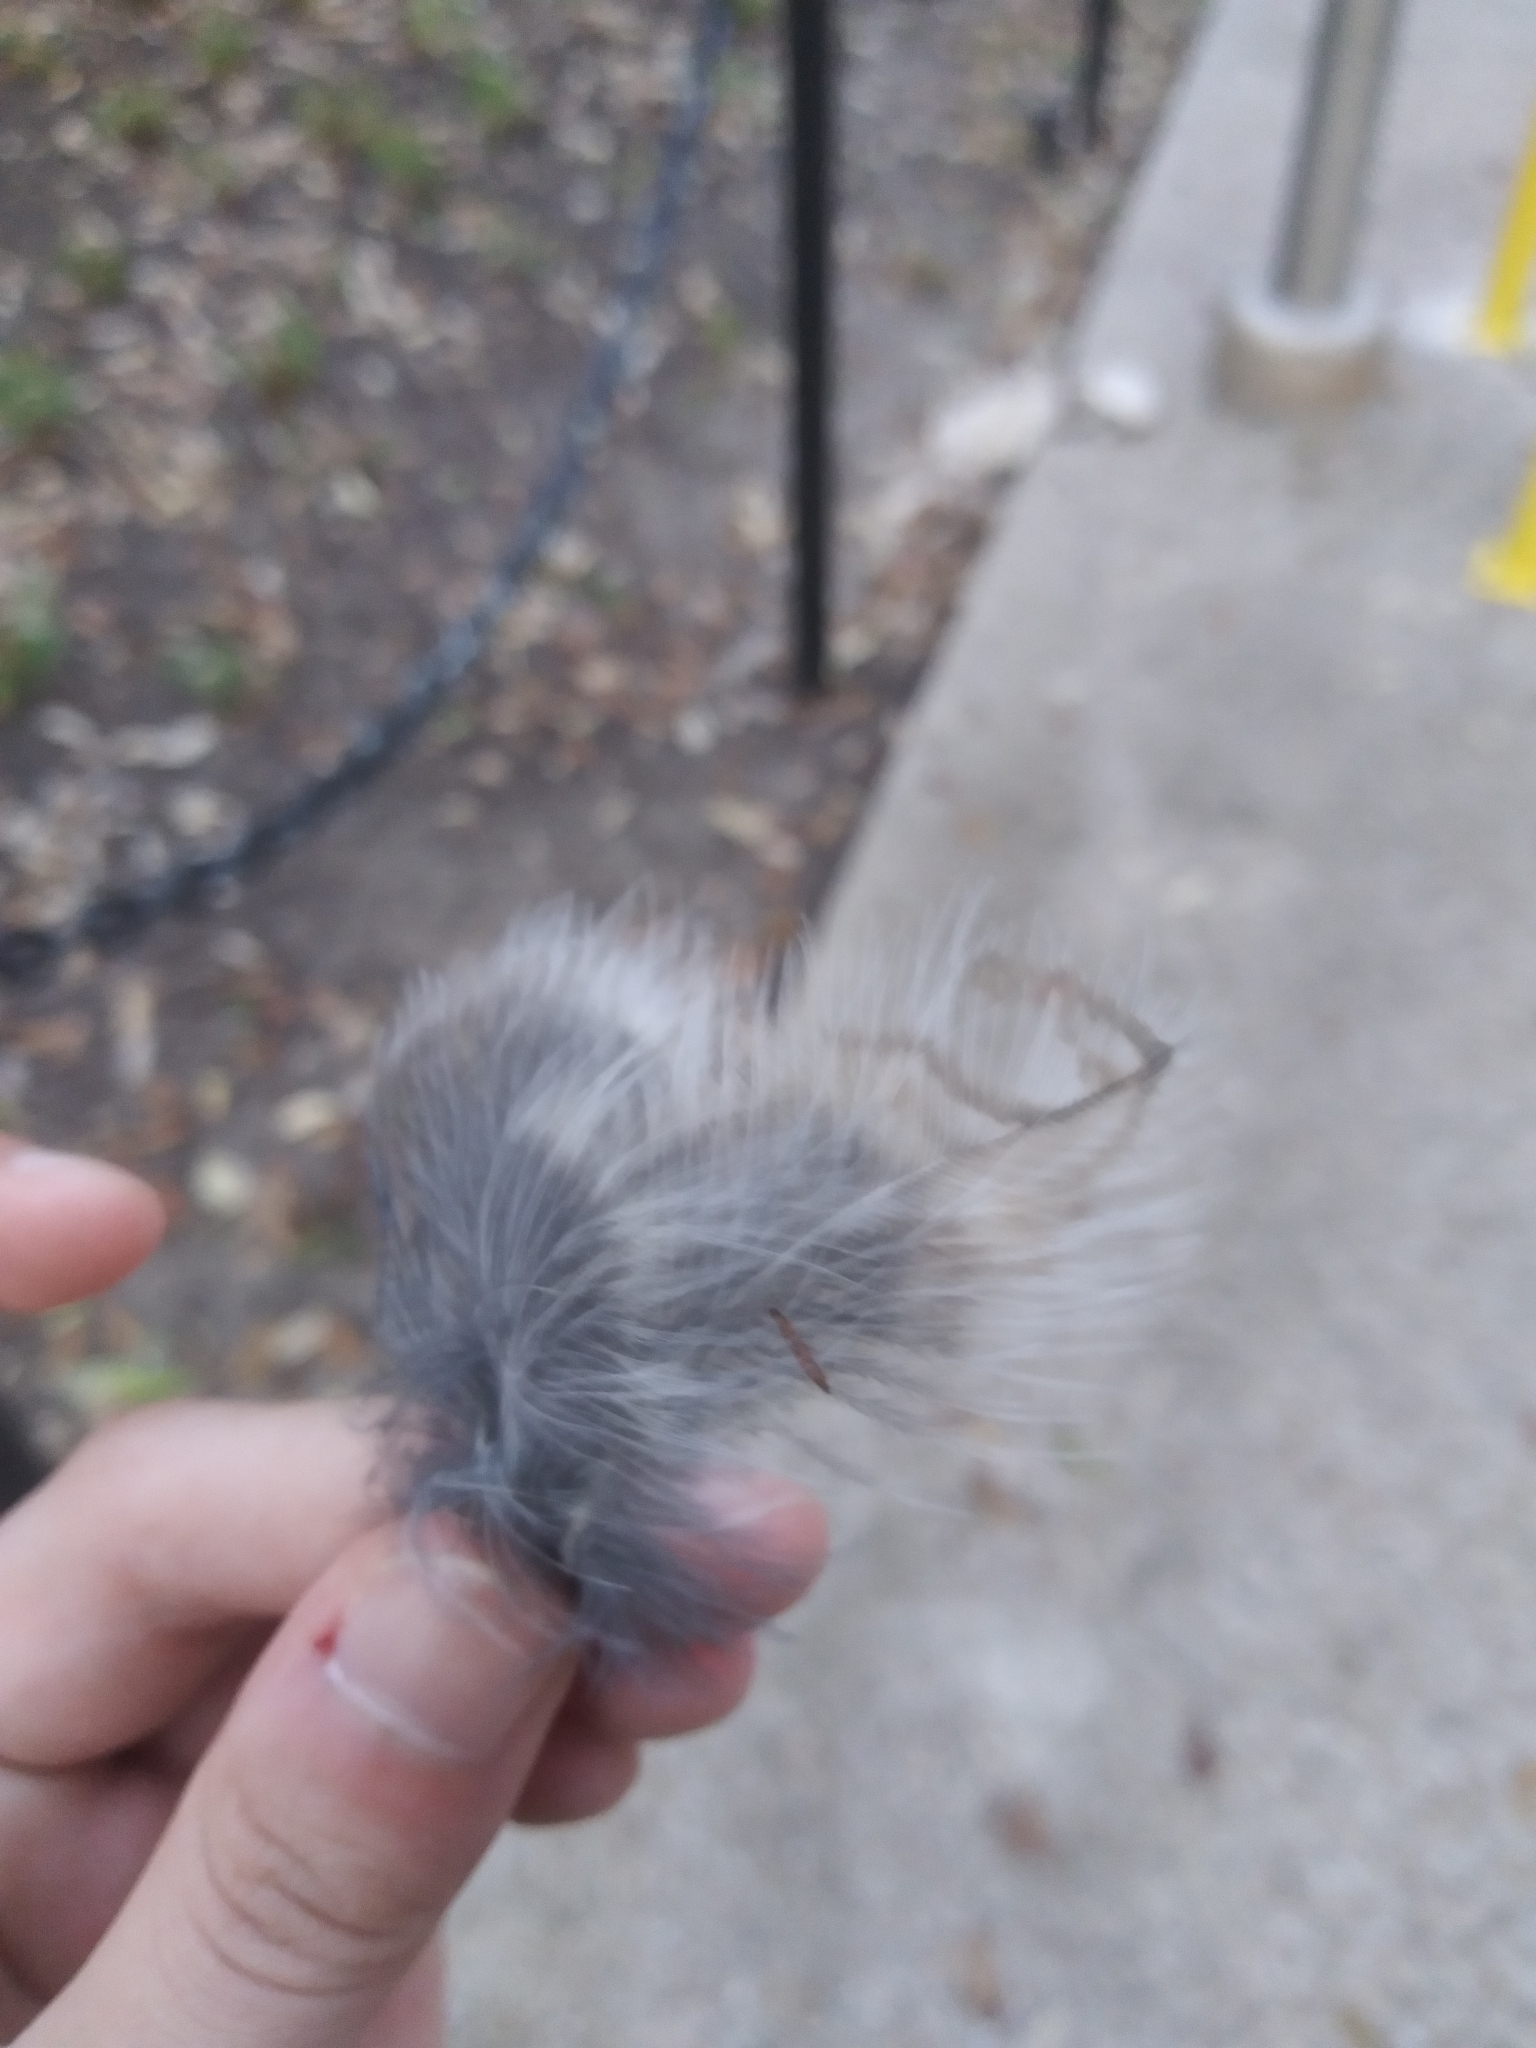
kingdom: Animalia
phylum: Chordata
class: Aves
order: Strigiformes
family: Strigidae
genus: Megascops
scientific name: Megascops asio
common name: Eastern screech-owl
